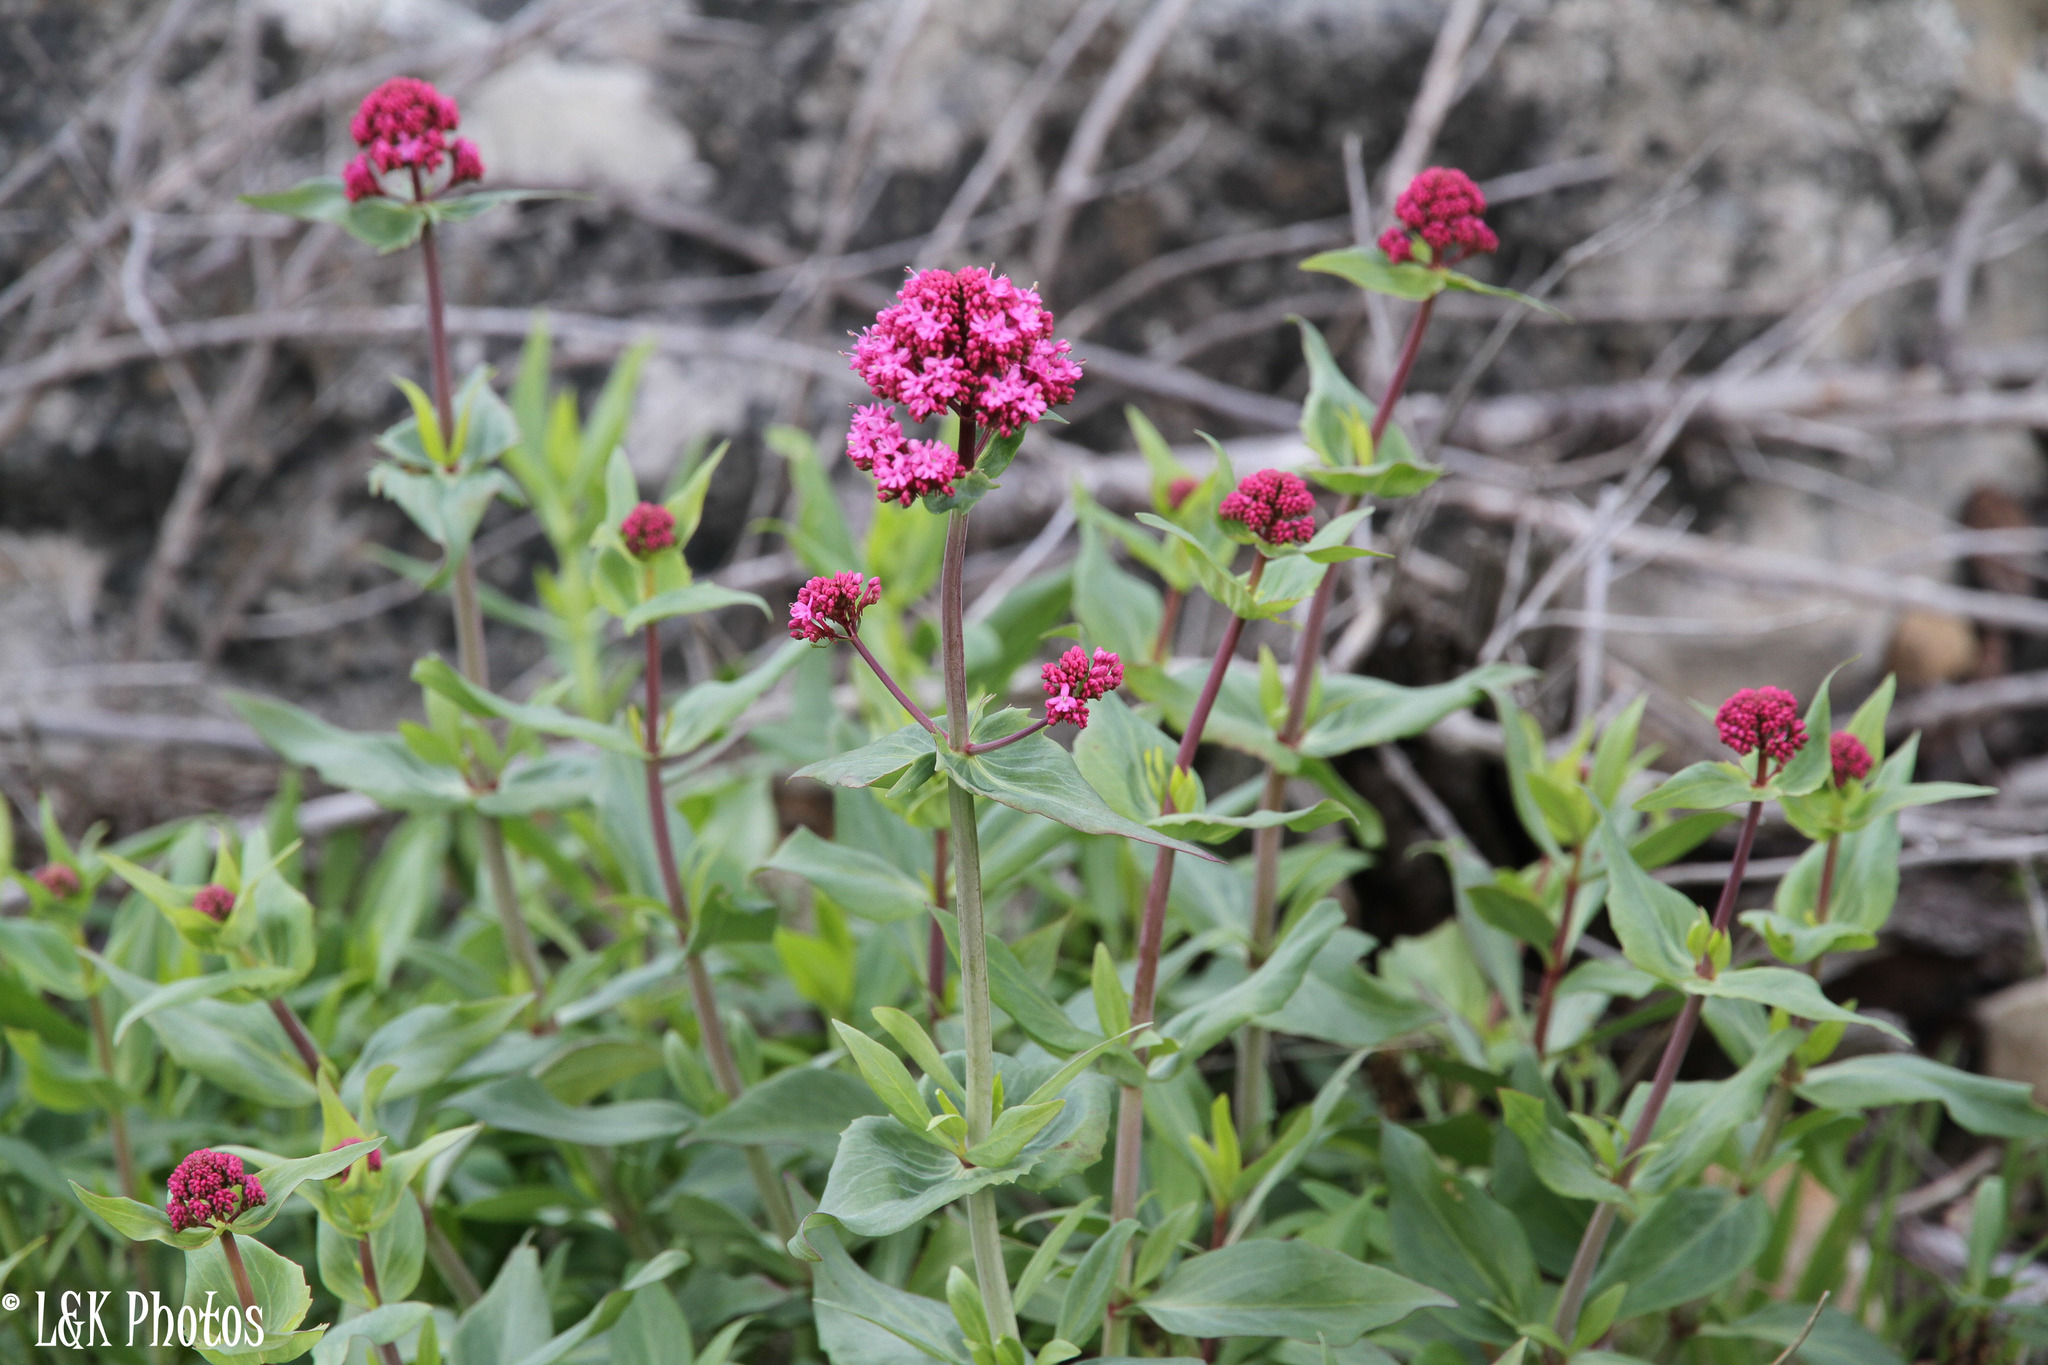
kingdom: Plantae
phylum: Tracheophyta
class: Magnoliopsida
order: Dipsacales
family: Caprifoliaceae
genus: Centranthus
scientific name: Centranthus ruber
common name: Red valerian
